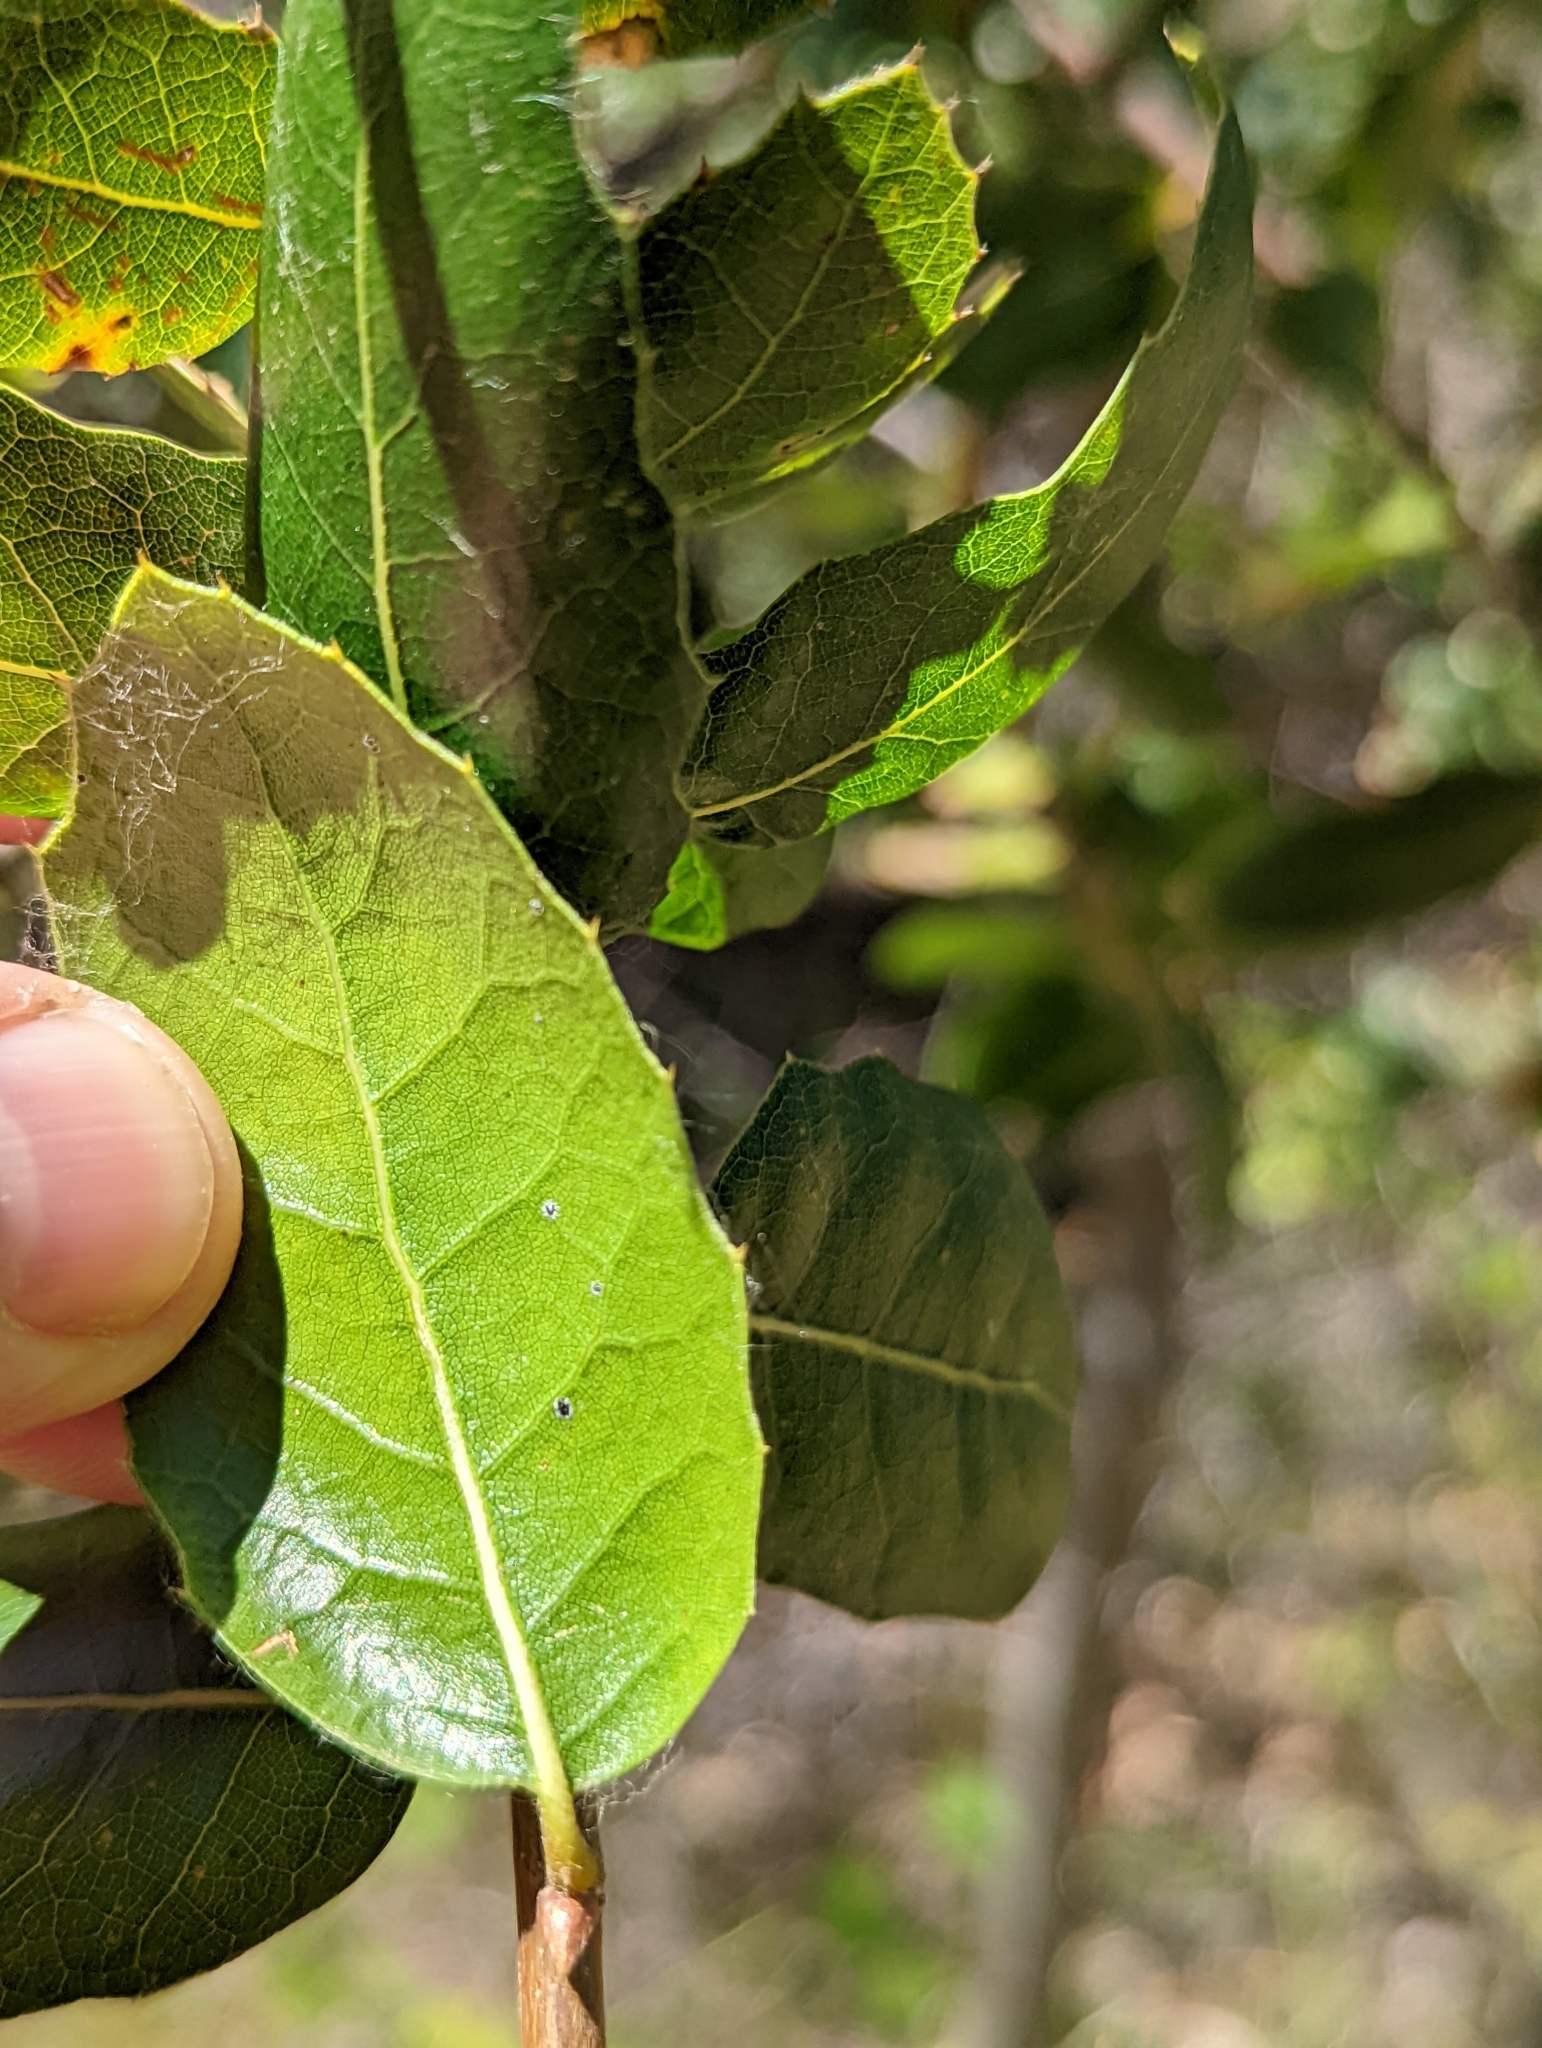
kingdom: Plantae
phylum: Tracheophyta
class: Magnoliopsida
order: Fagales
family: Fagaceae
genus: Quercus
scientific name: Quercus wislizeni
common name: Interior live oak
